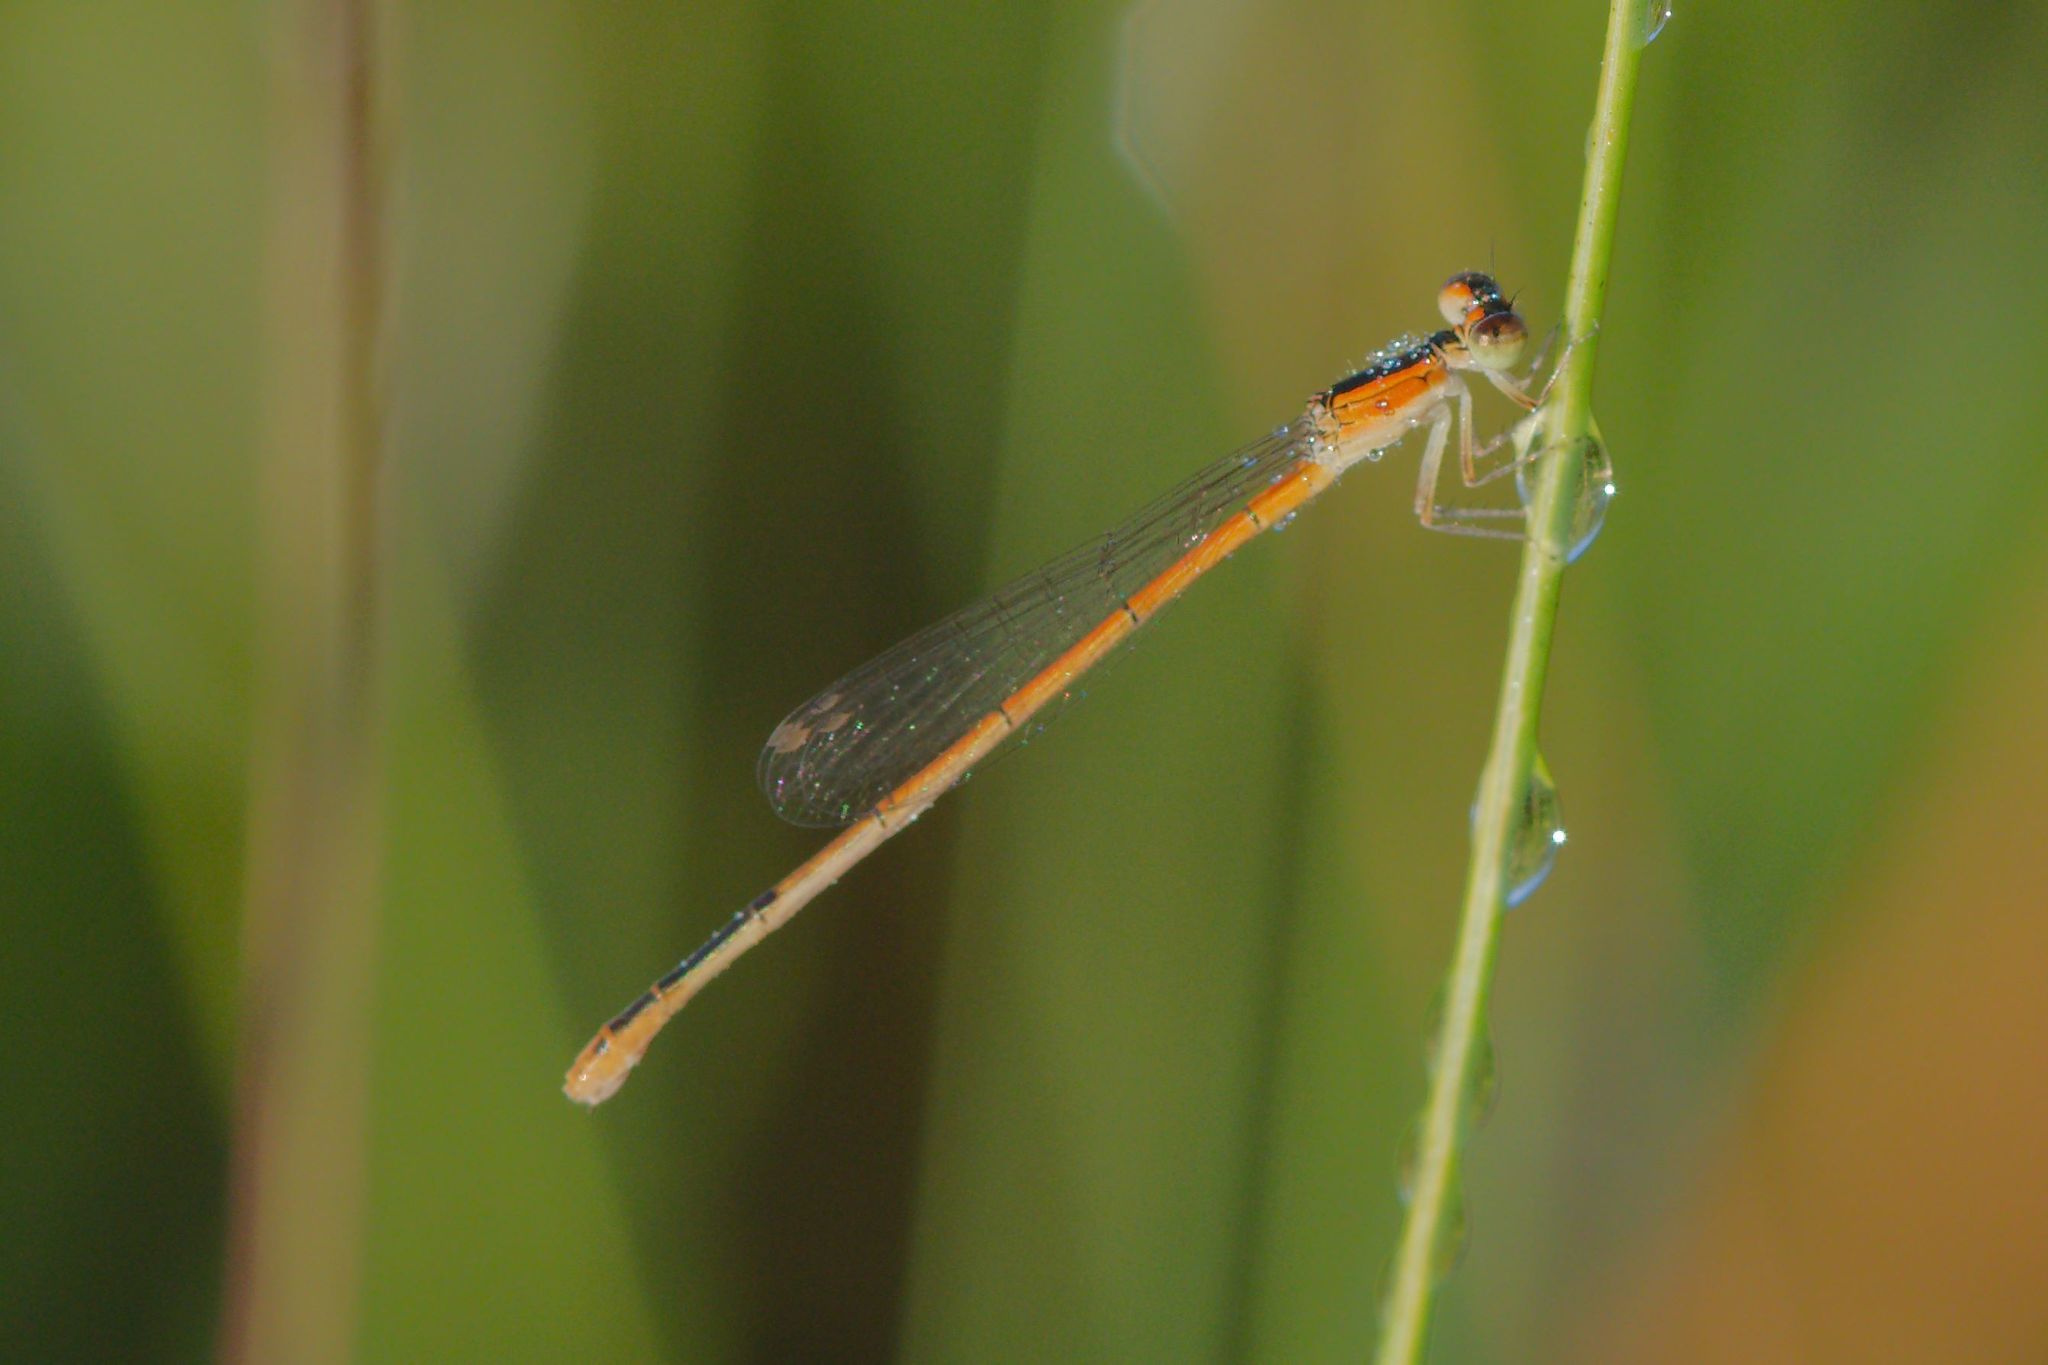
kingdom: Animalia
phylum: Arthropoda
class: Insecta
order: Odonata
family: Coenagrionidae
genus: Ischnura
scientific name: Ischnura hastata
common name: Citrine forktail
